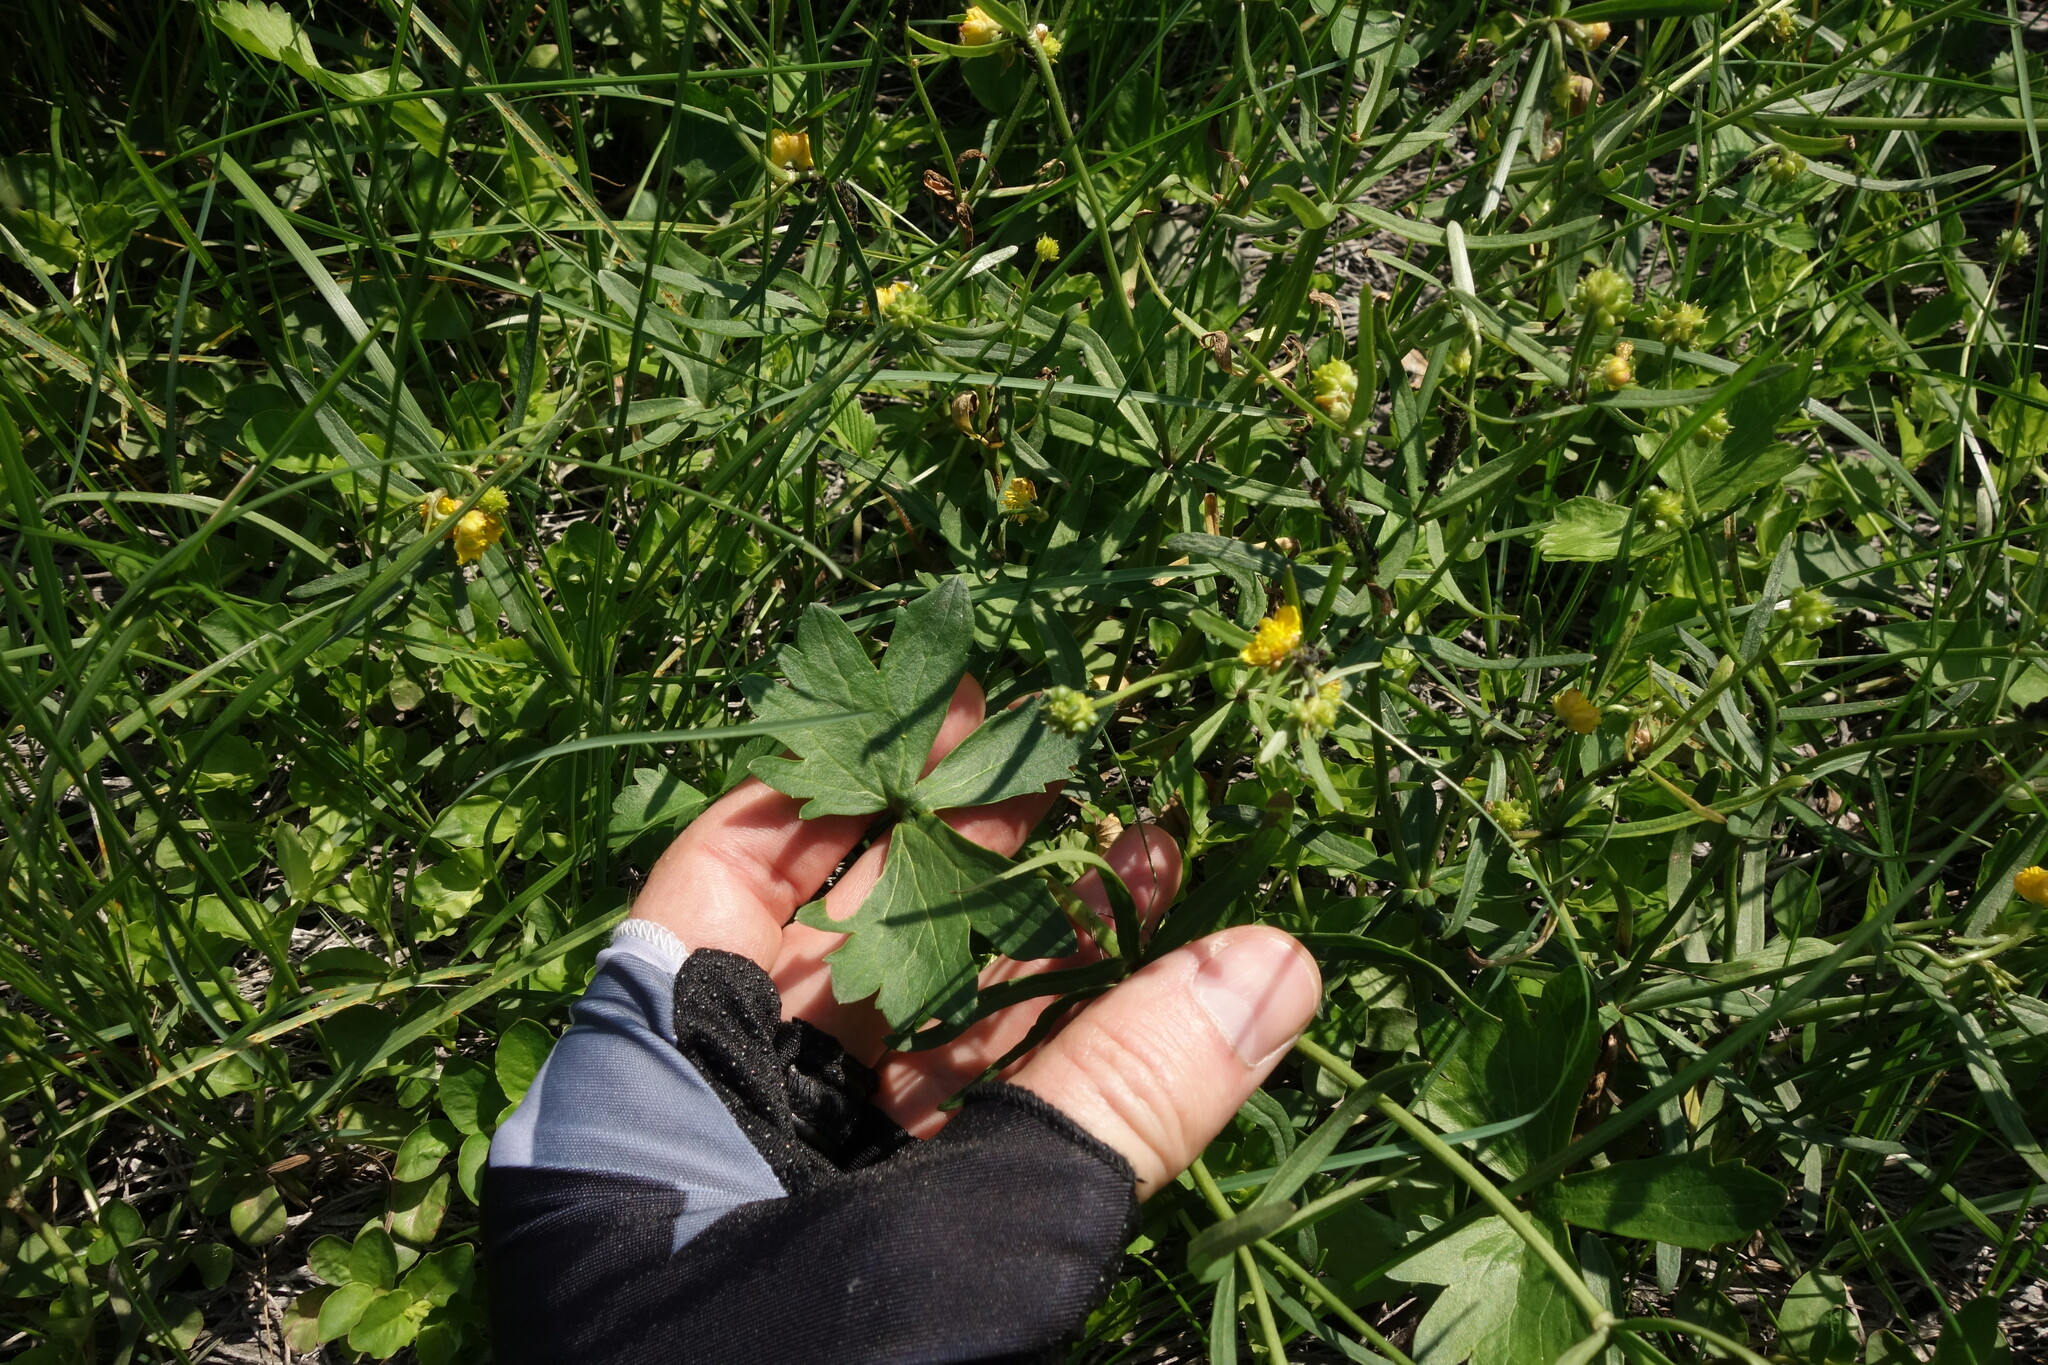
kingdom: Plantae
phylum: Tracheophyta
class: Magnoliopsida
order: Ranunculales
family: Ranunculaceae
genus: Ranunculus
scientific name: Ranunculus auricomus
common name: Goldilocks buttercup
